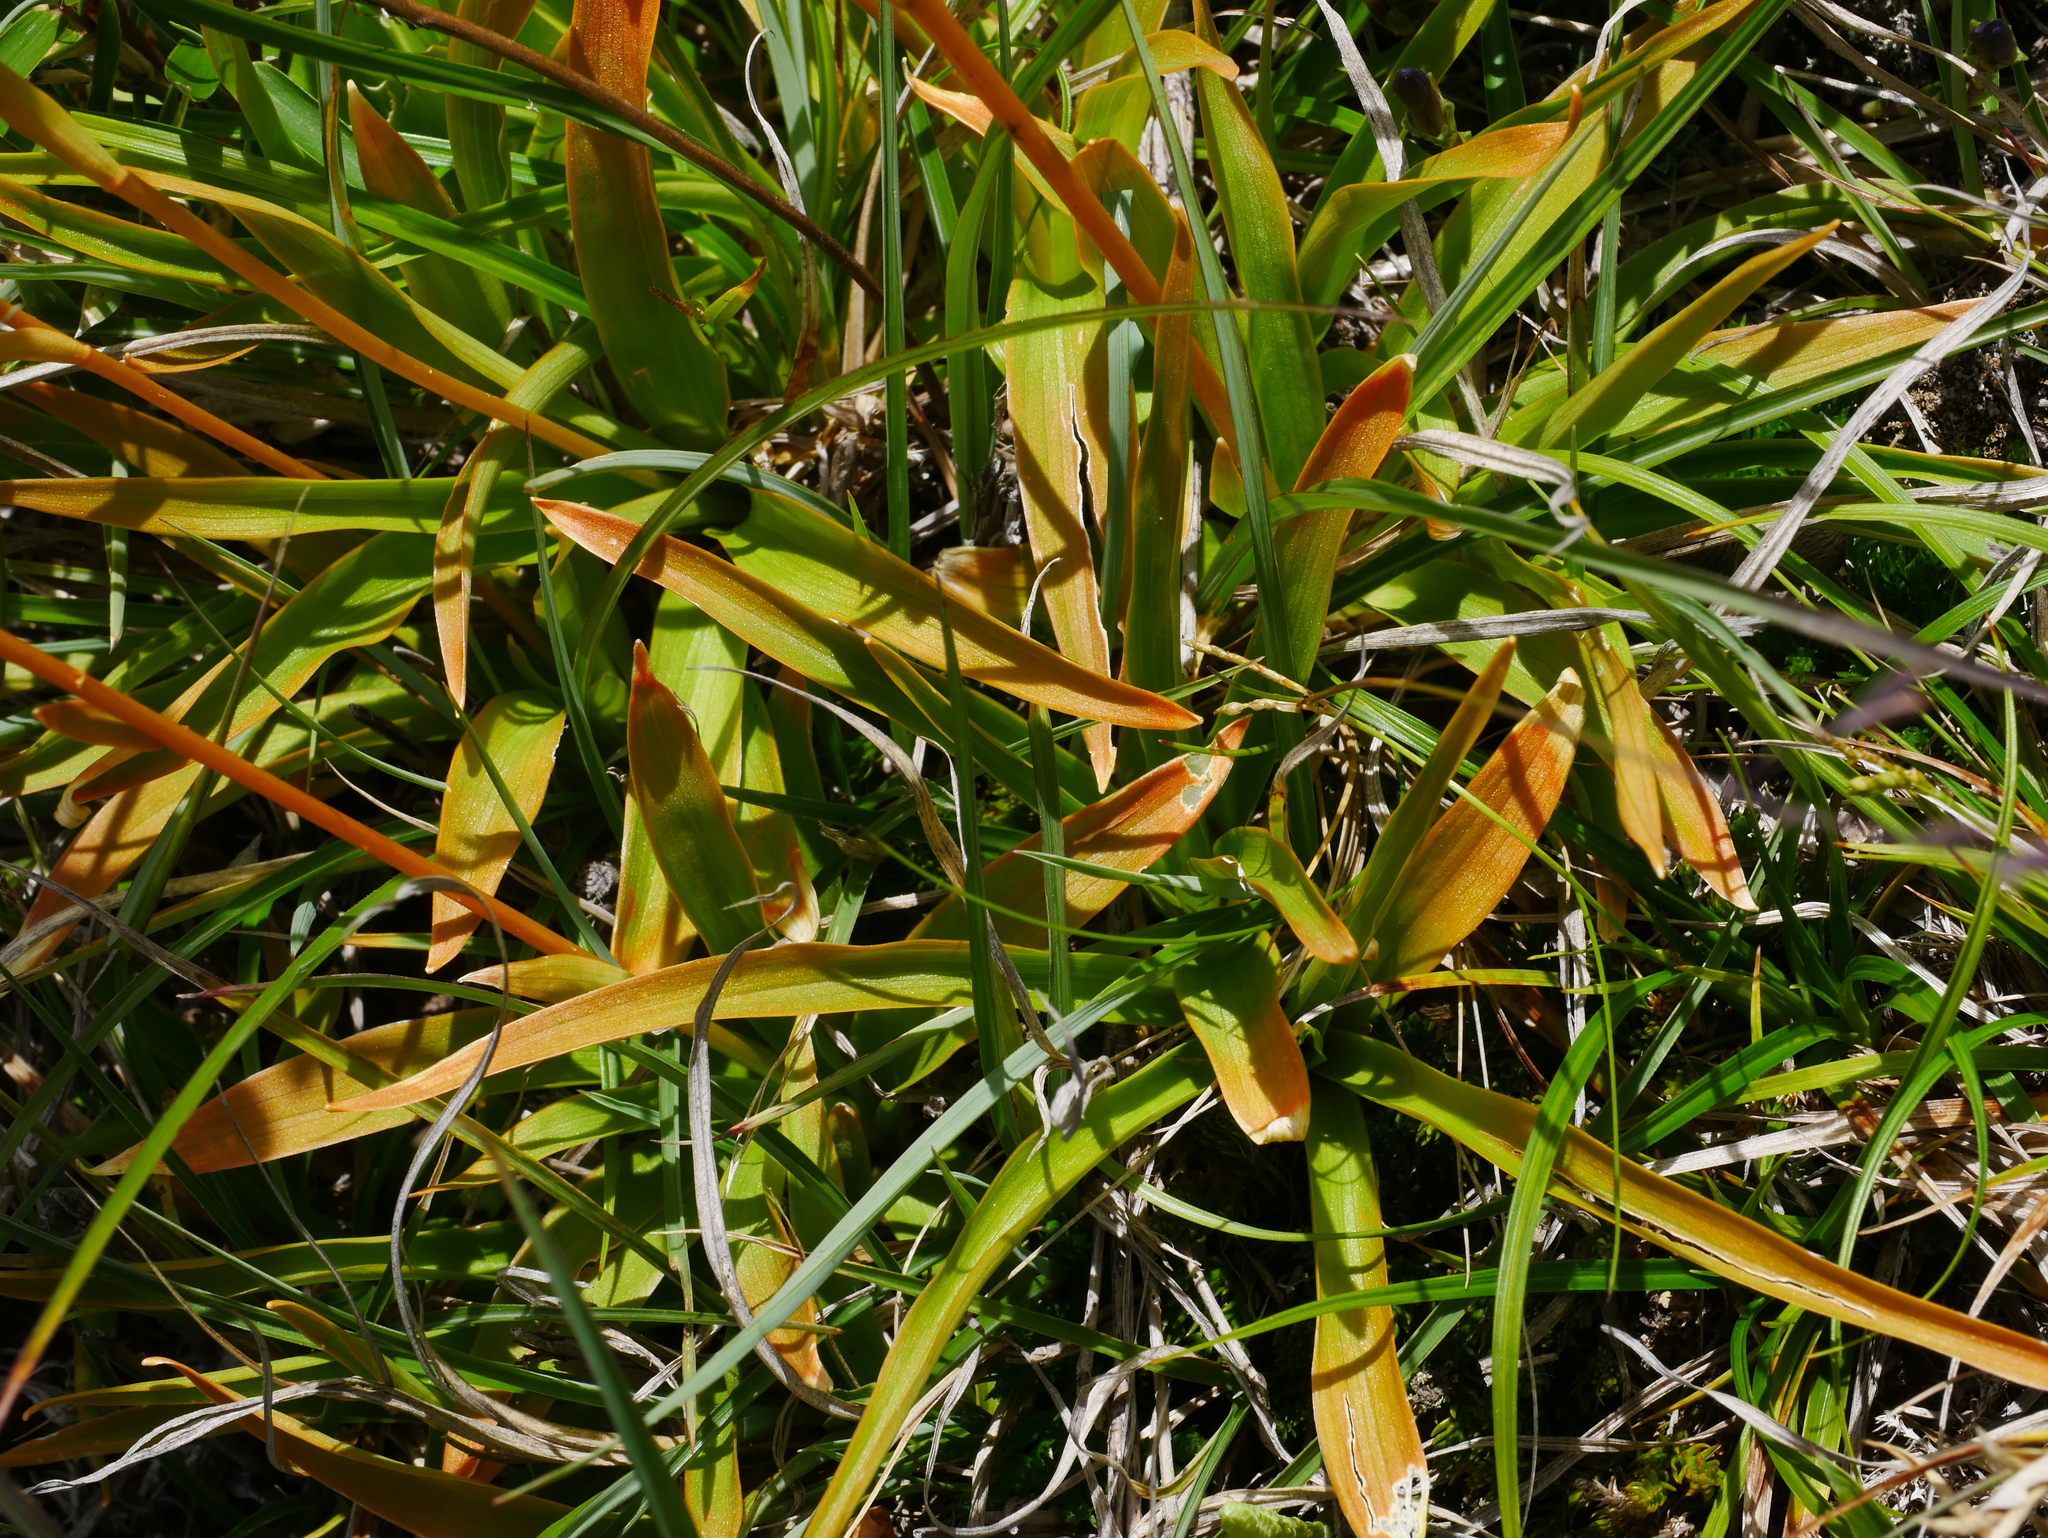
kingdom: Plantae
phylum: Tracheophyta
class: Liliopsida
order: Dioscoreales
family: Nartheciaceae
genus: Aletris
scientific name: Aletris glabra
